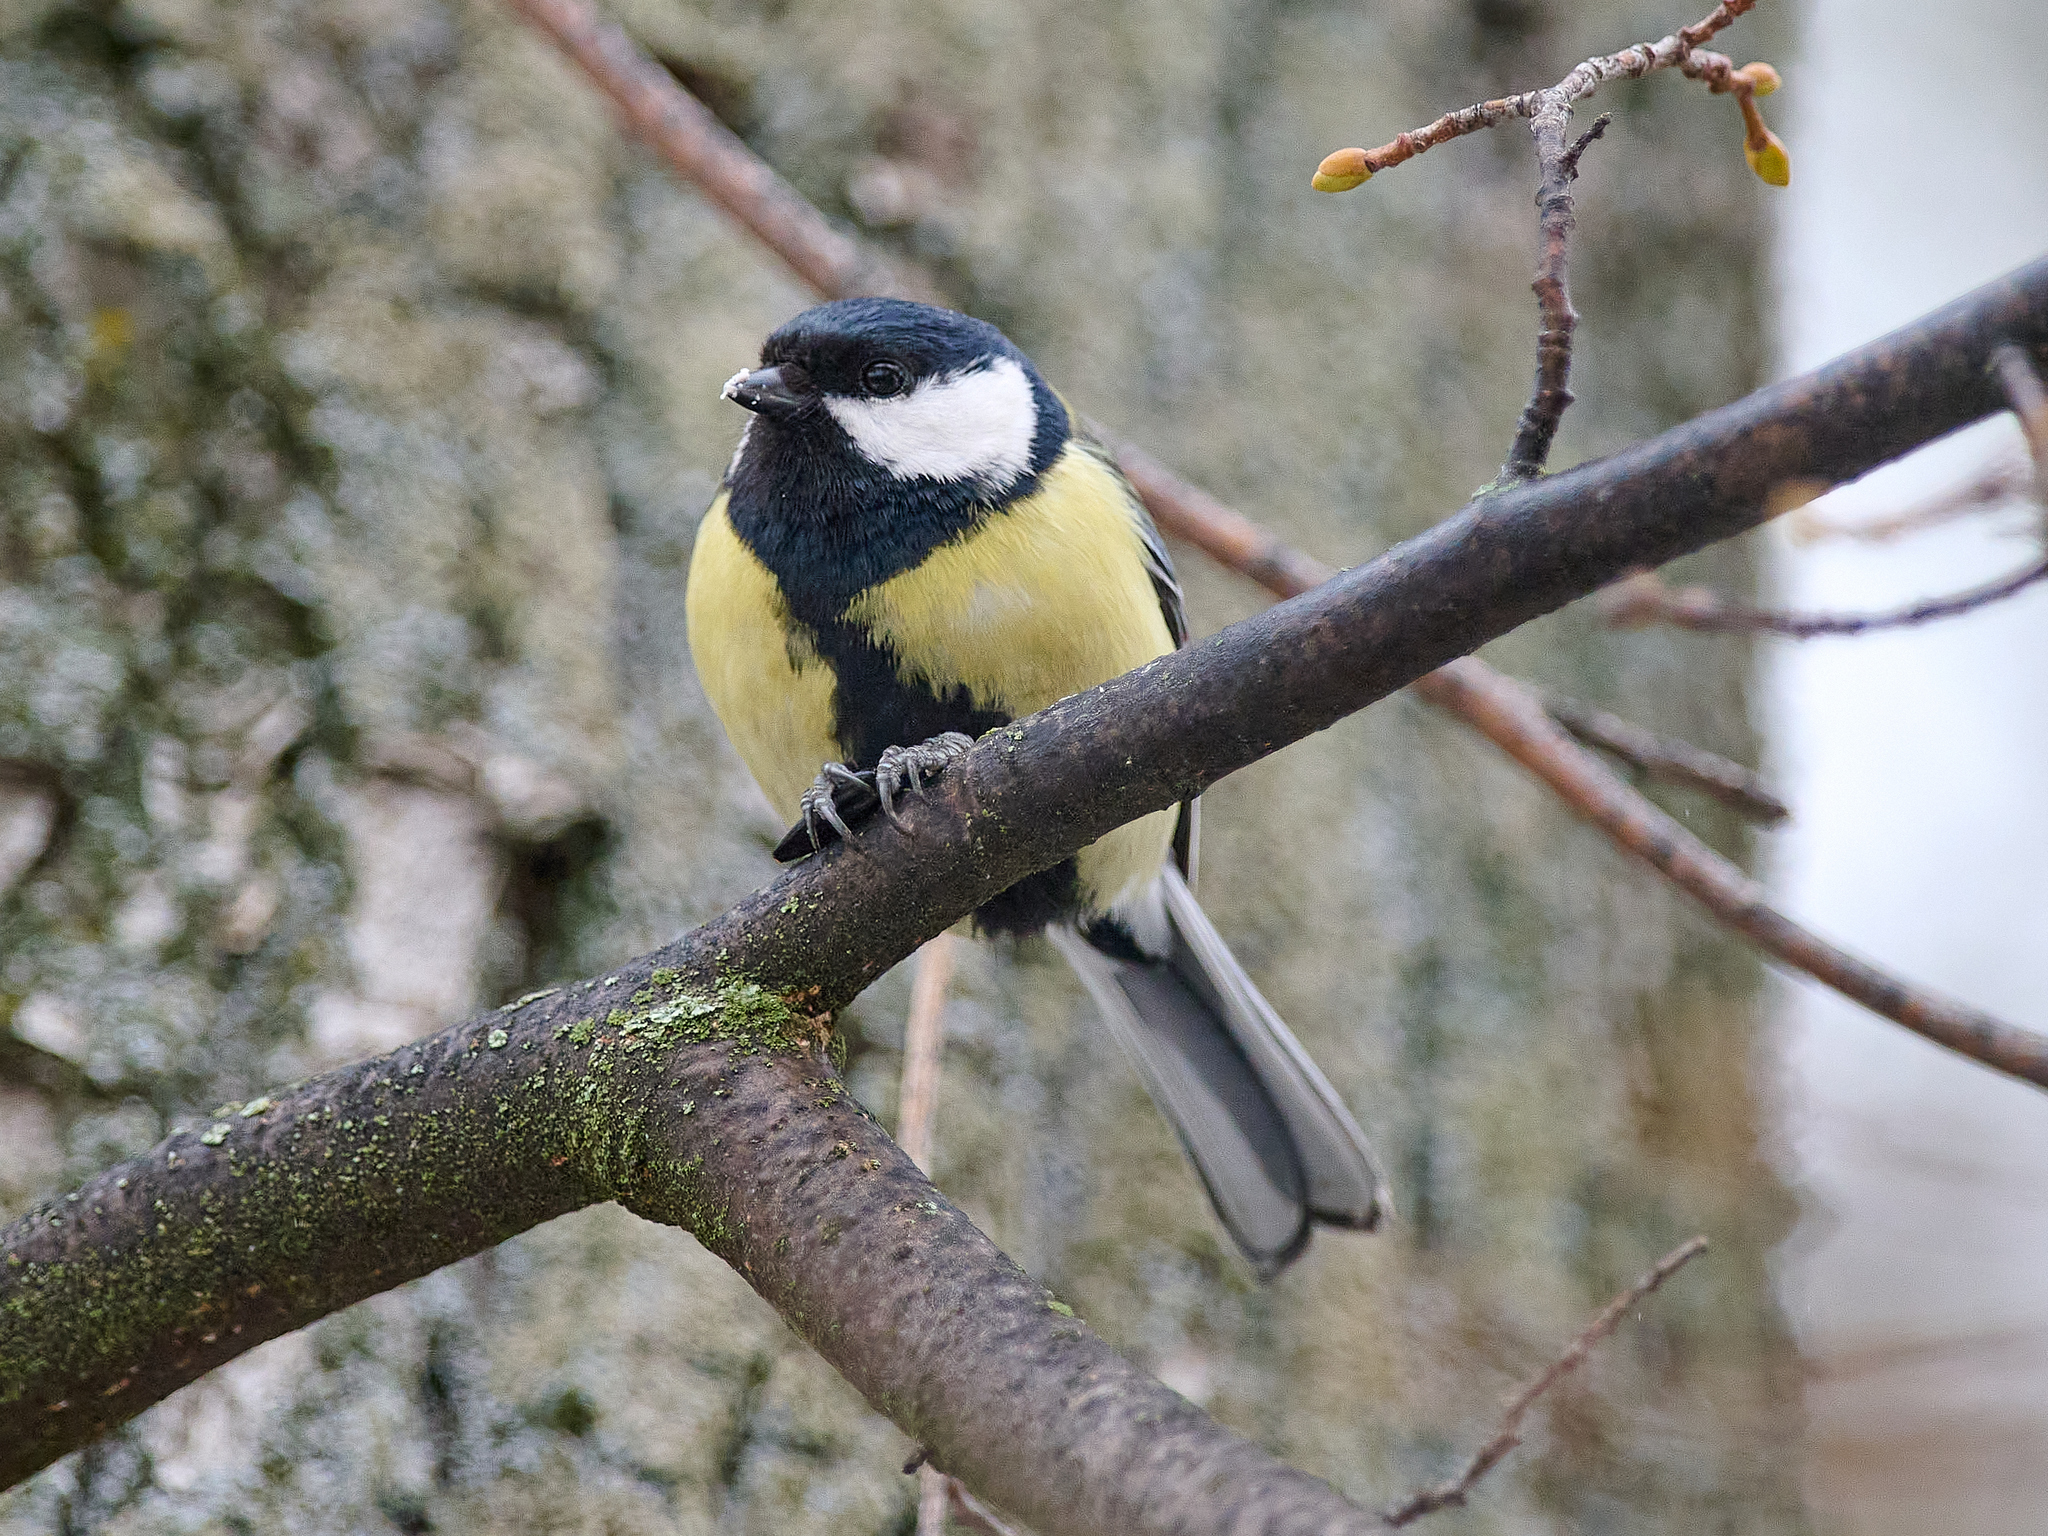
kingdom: Animalia
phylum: Chordata
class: Aves
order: Passeriformes
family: Paridae
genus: Parus
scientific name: Parus major
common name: Great tit
